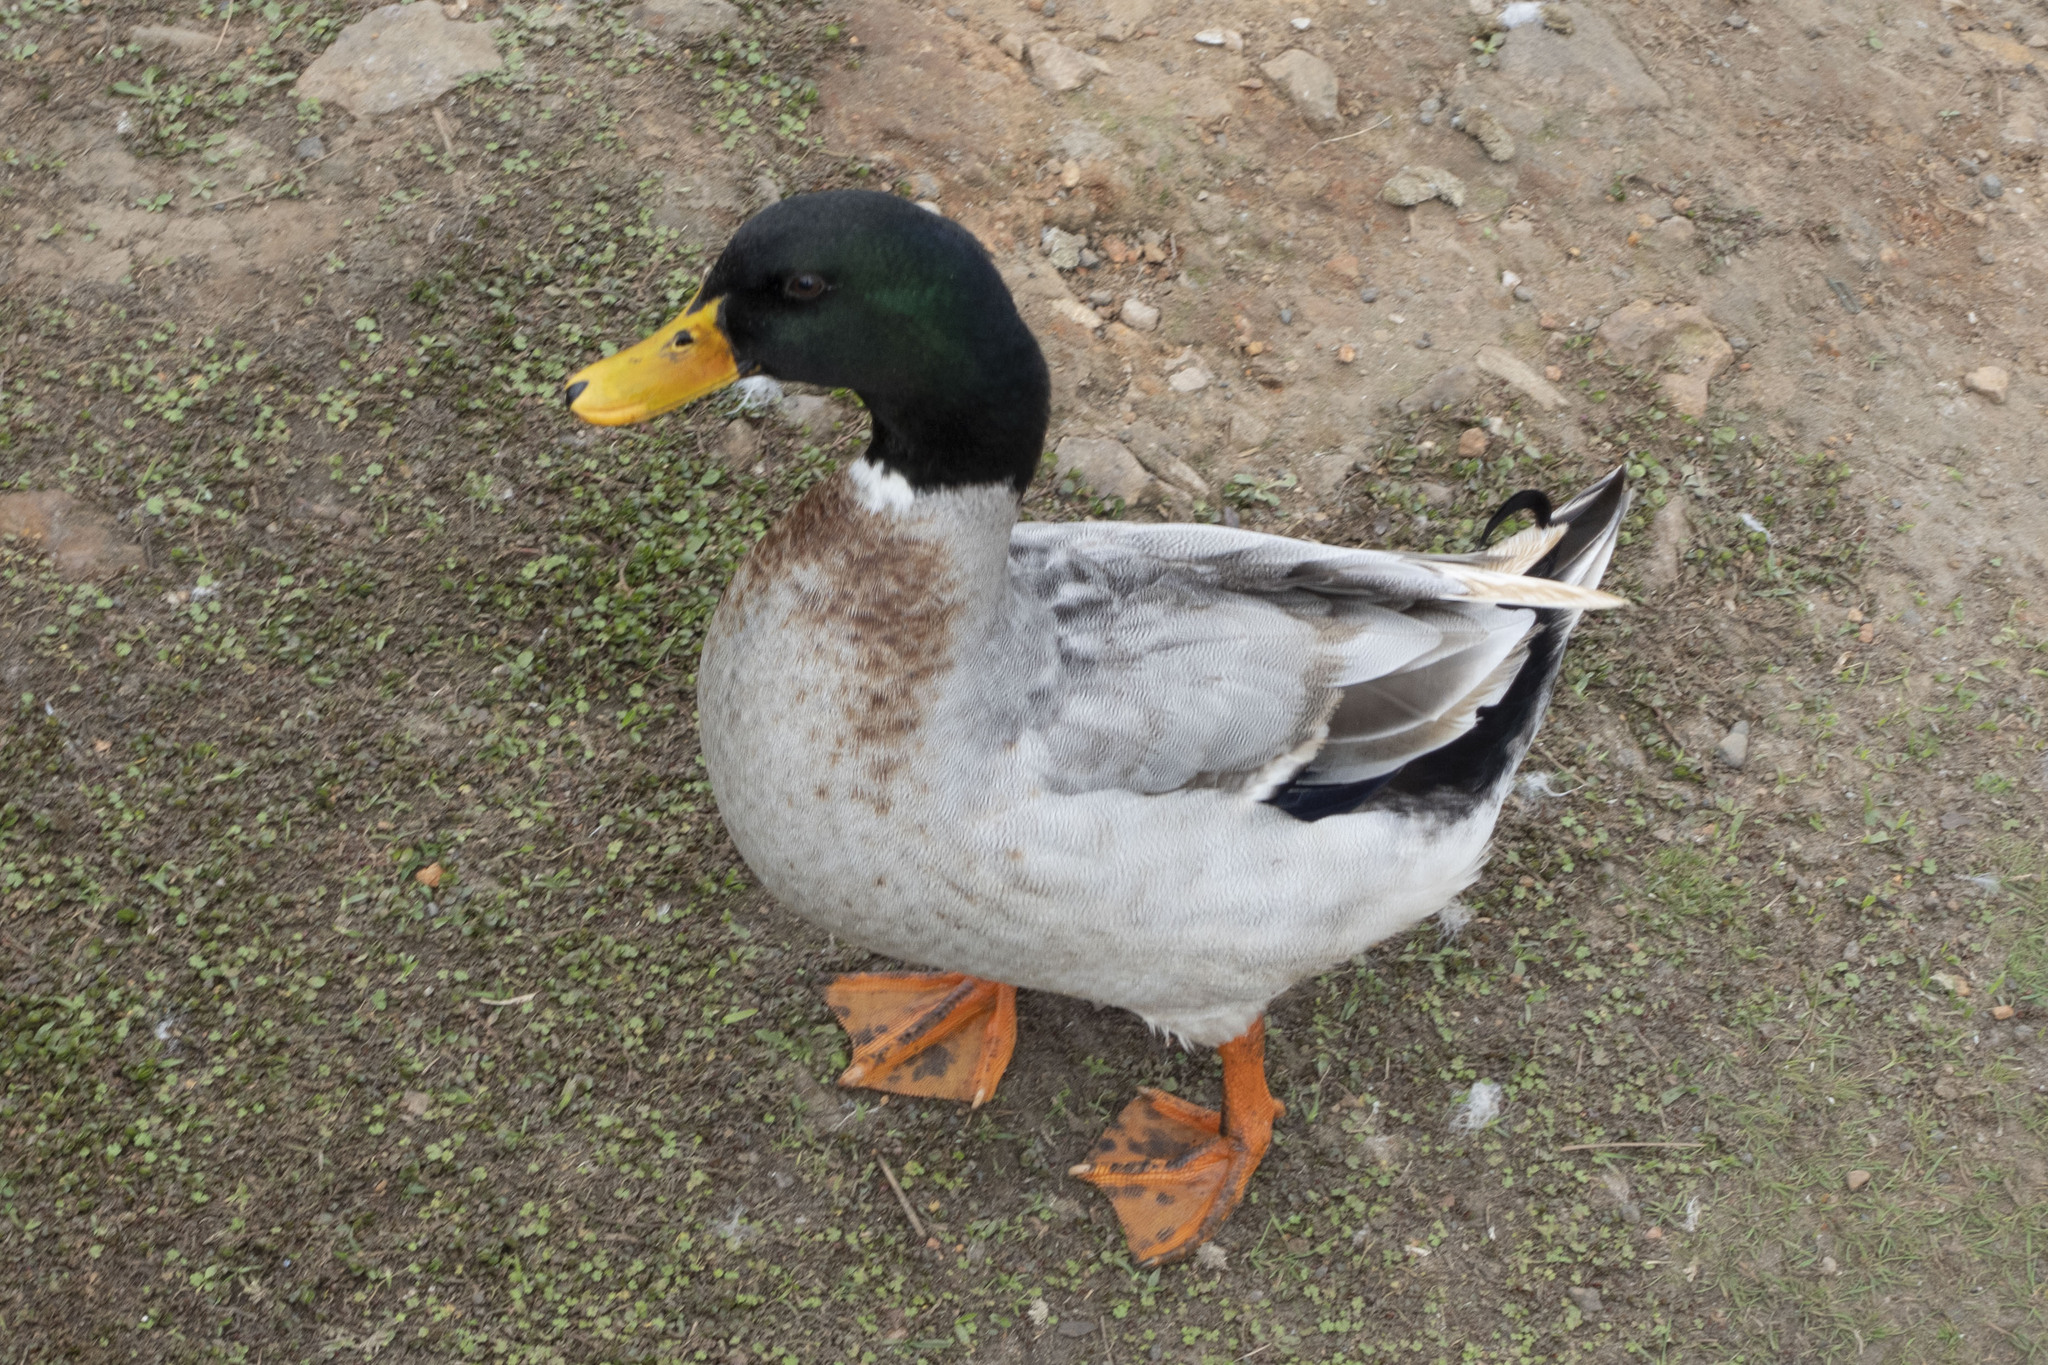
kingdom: Animalia
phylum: Chordata
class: Aves
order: Anseriformes
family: Anatidae
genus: Anas
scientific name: Anas platyrhynchos
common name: Mallard
